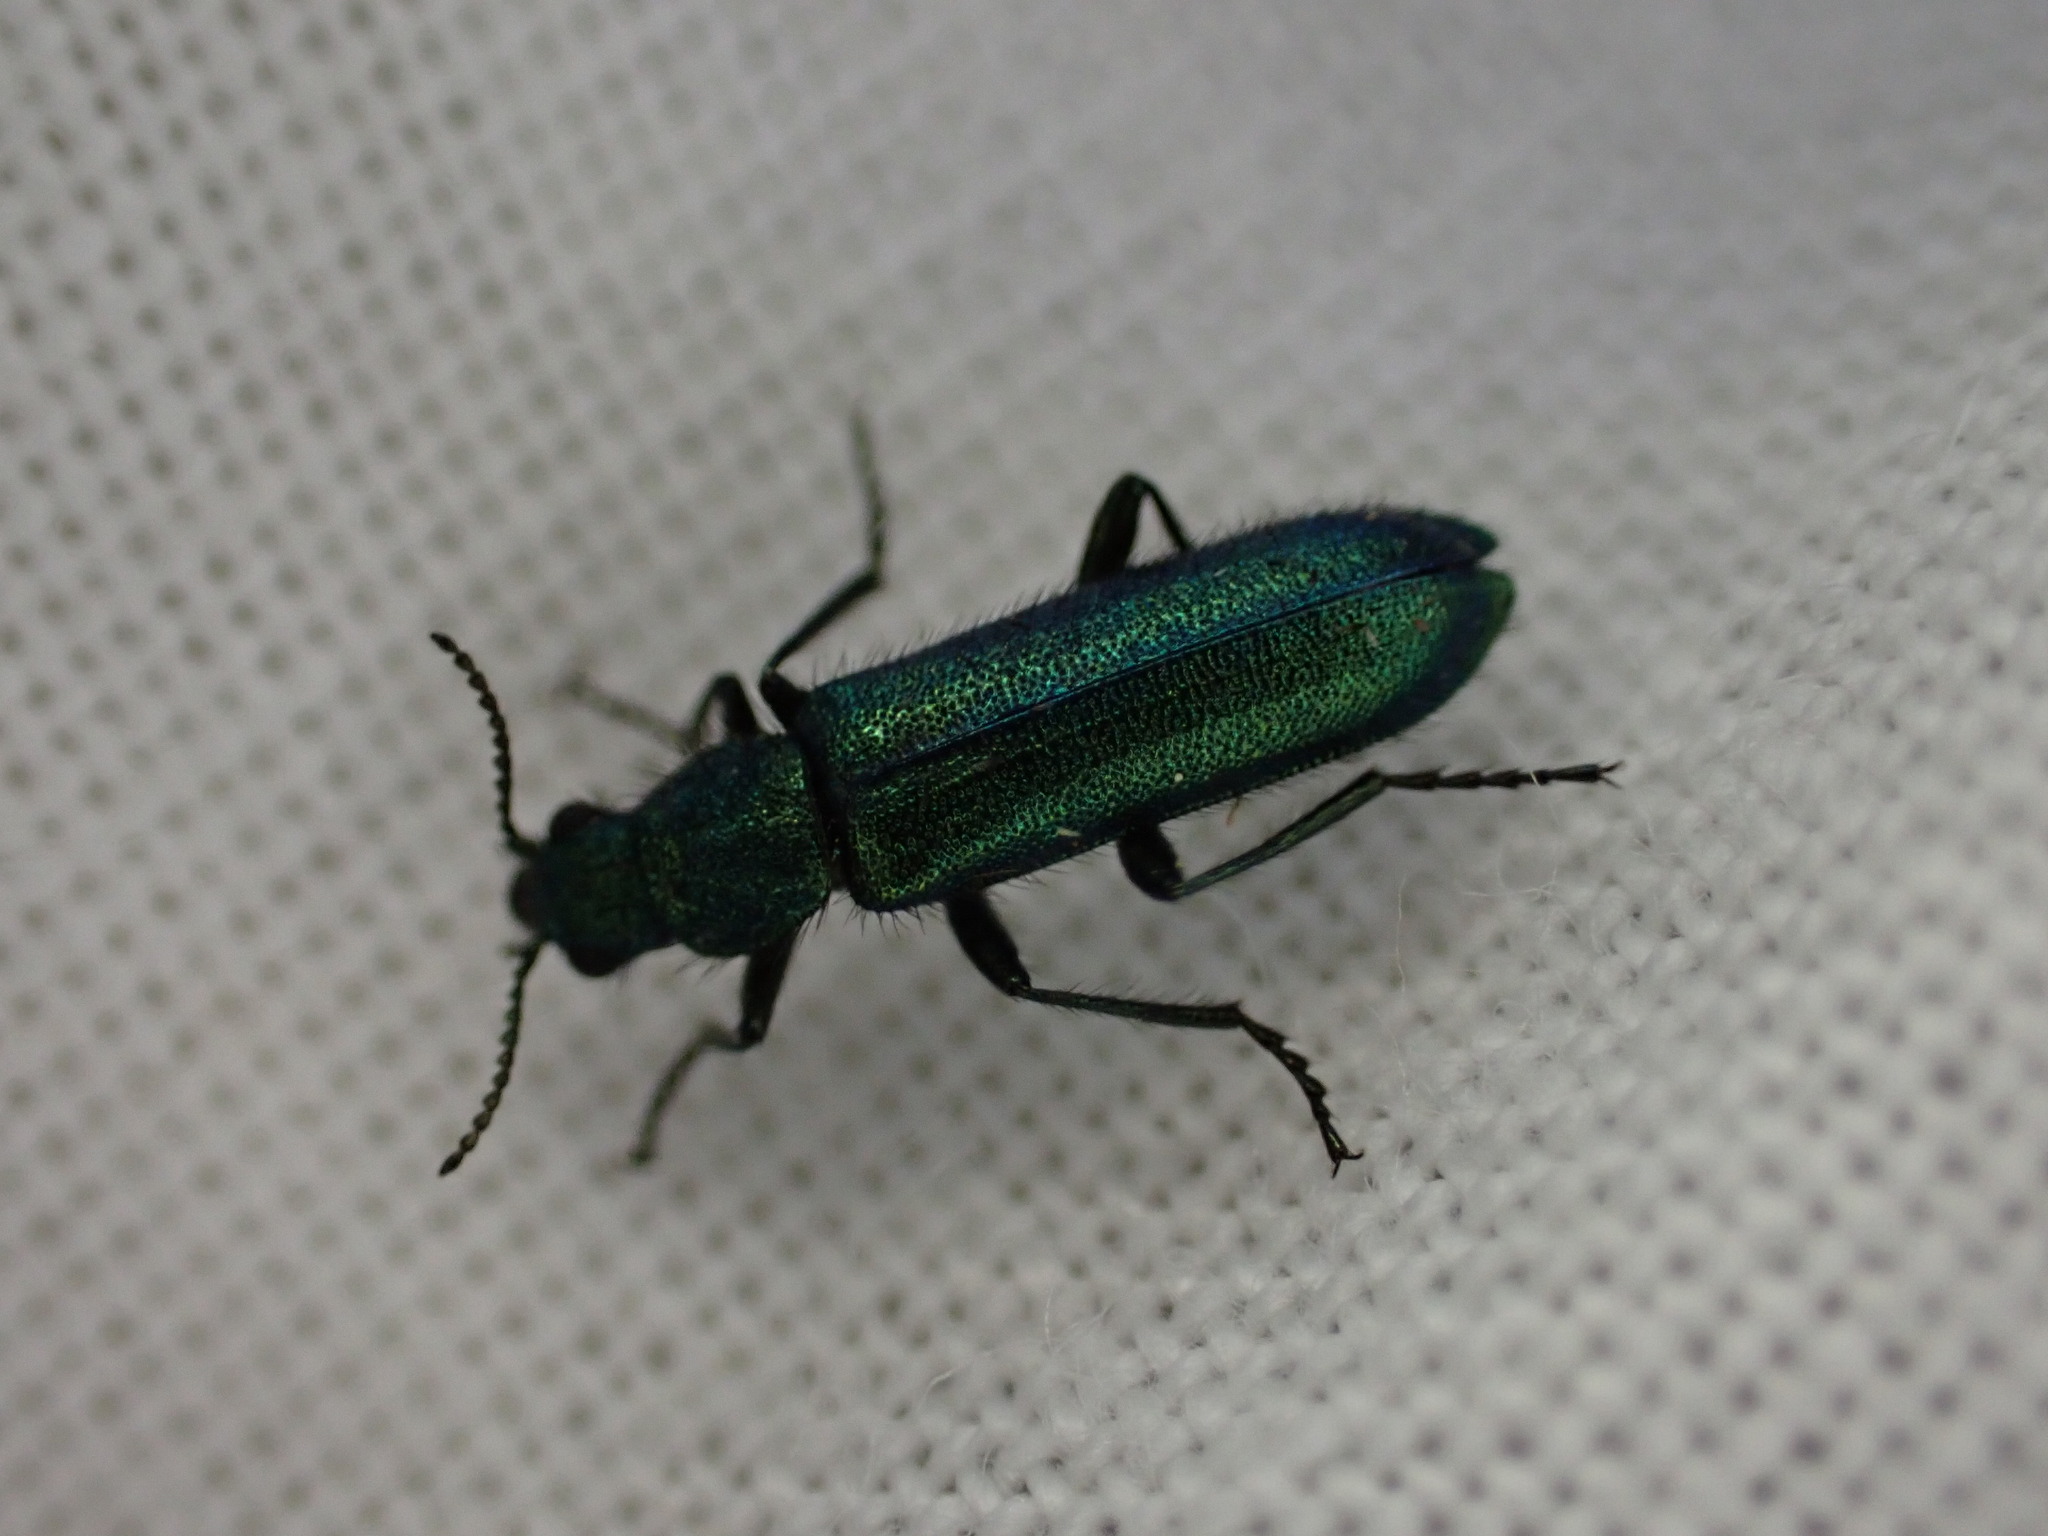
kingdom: Animalia
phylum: Arthropoda
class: Insecta
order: Coleoptera
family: Dasytidae
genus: Psilothrix
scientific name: Psilothrix viridicoerulea
